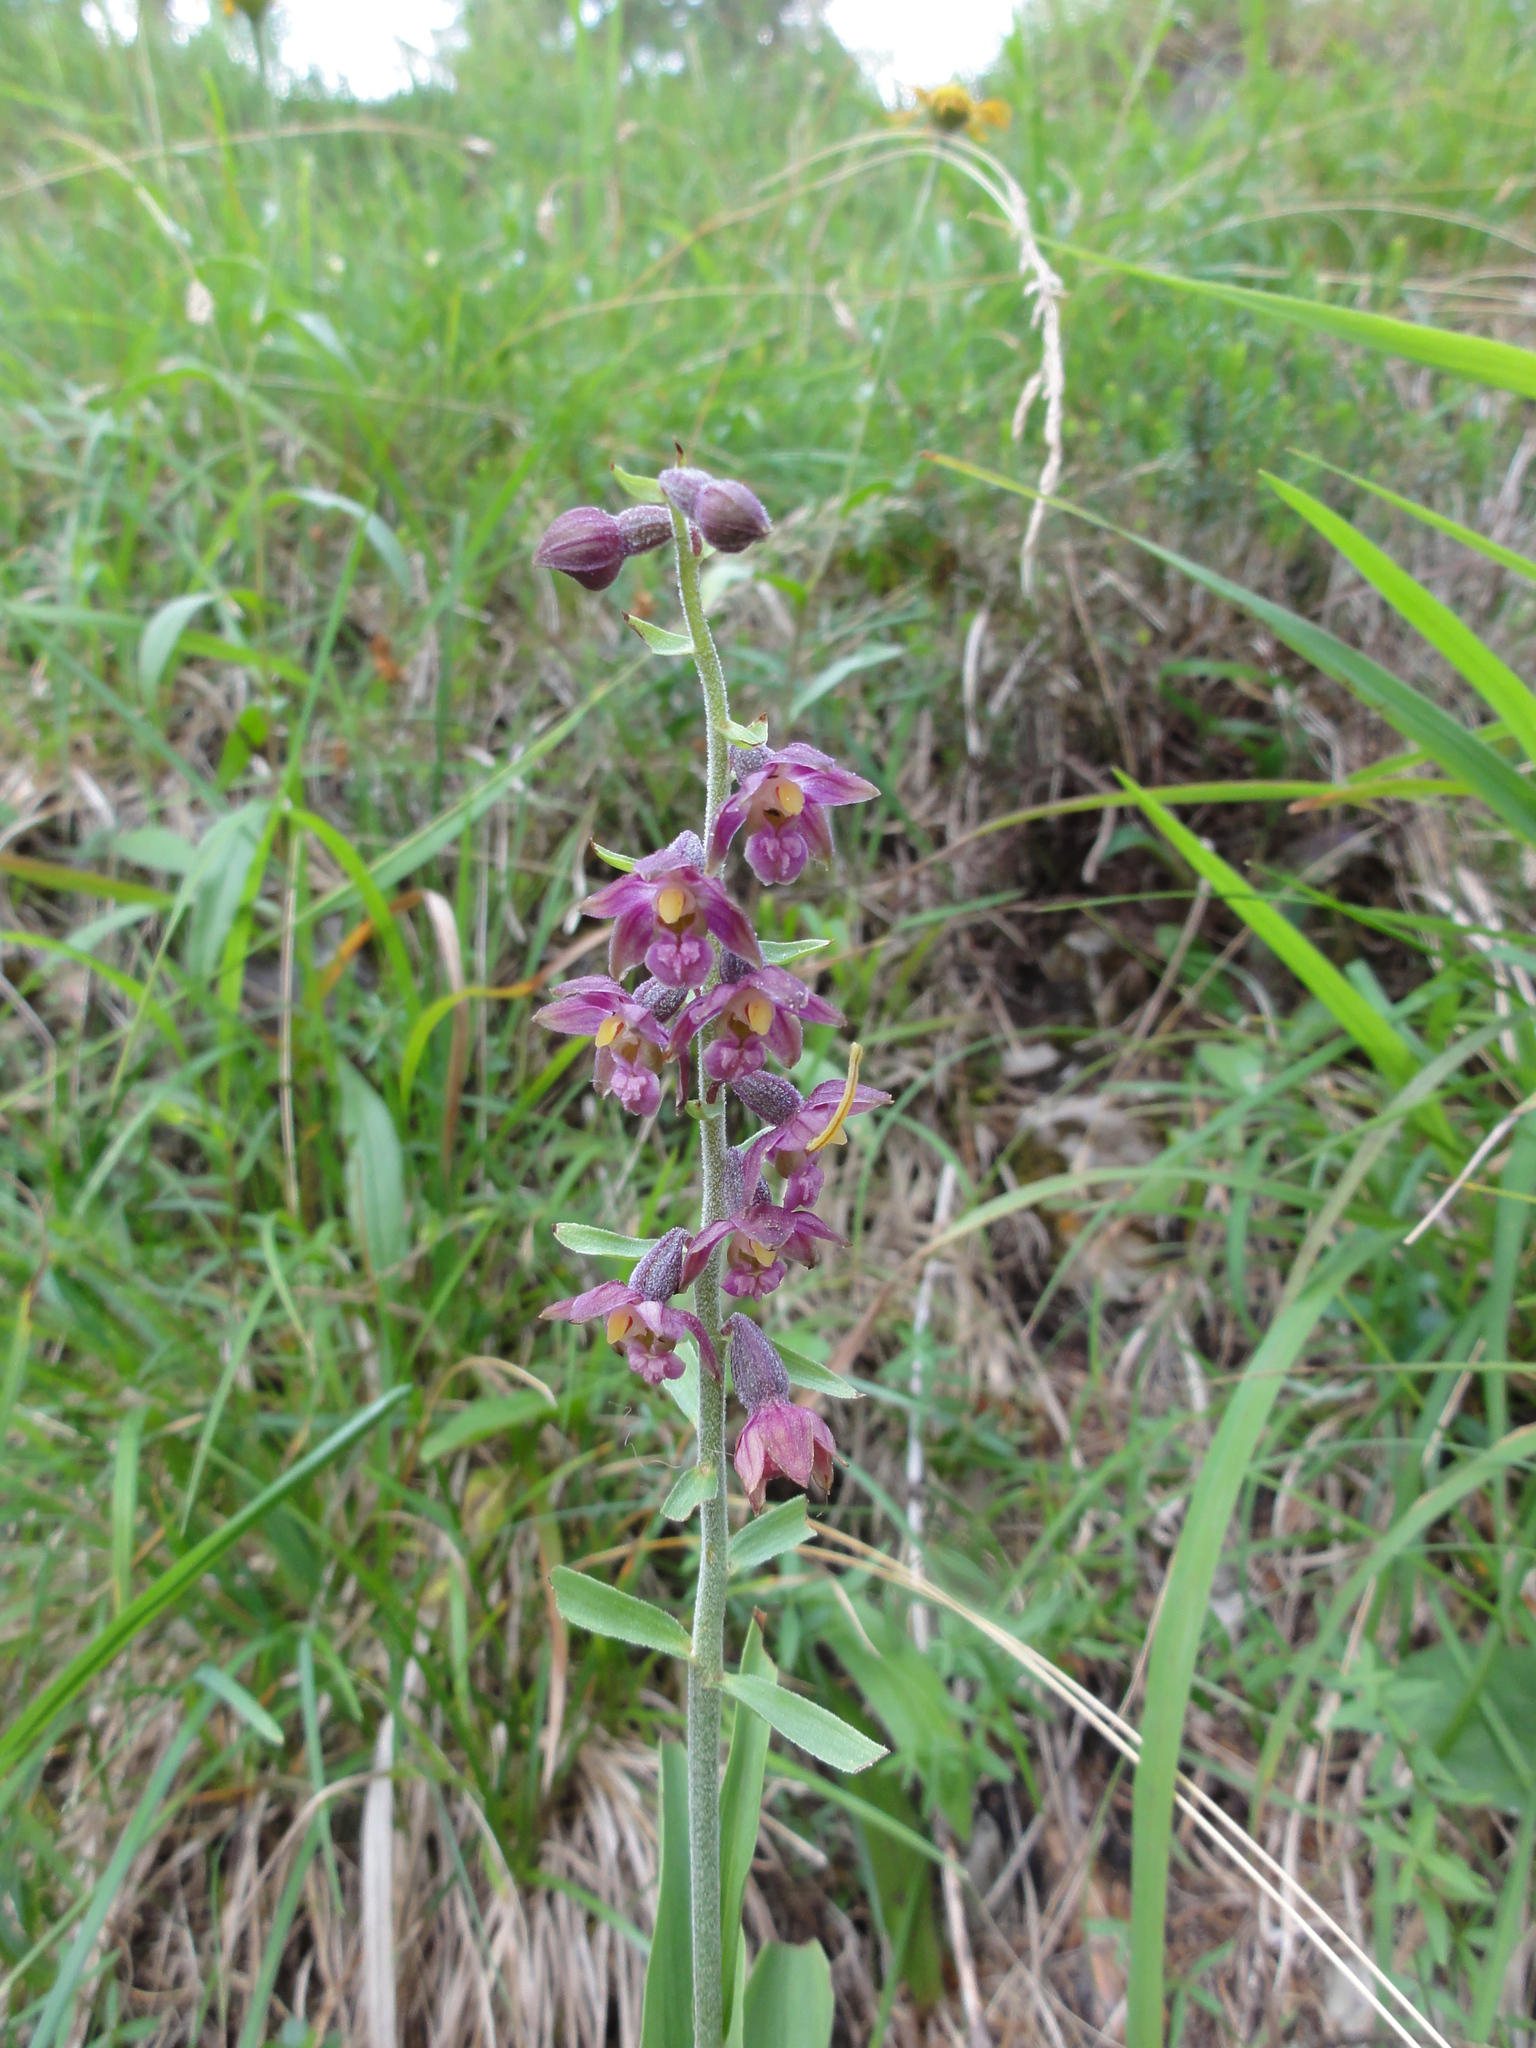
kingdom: Plantae
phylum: Tracheophyta
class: Liliopsida
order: Asparagales
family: Orchidaceae
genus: Epipactis
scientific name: Epipactis atrorubens
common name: Dark-red helleborine
